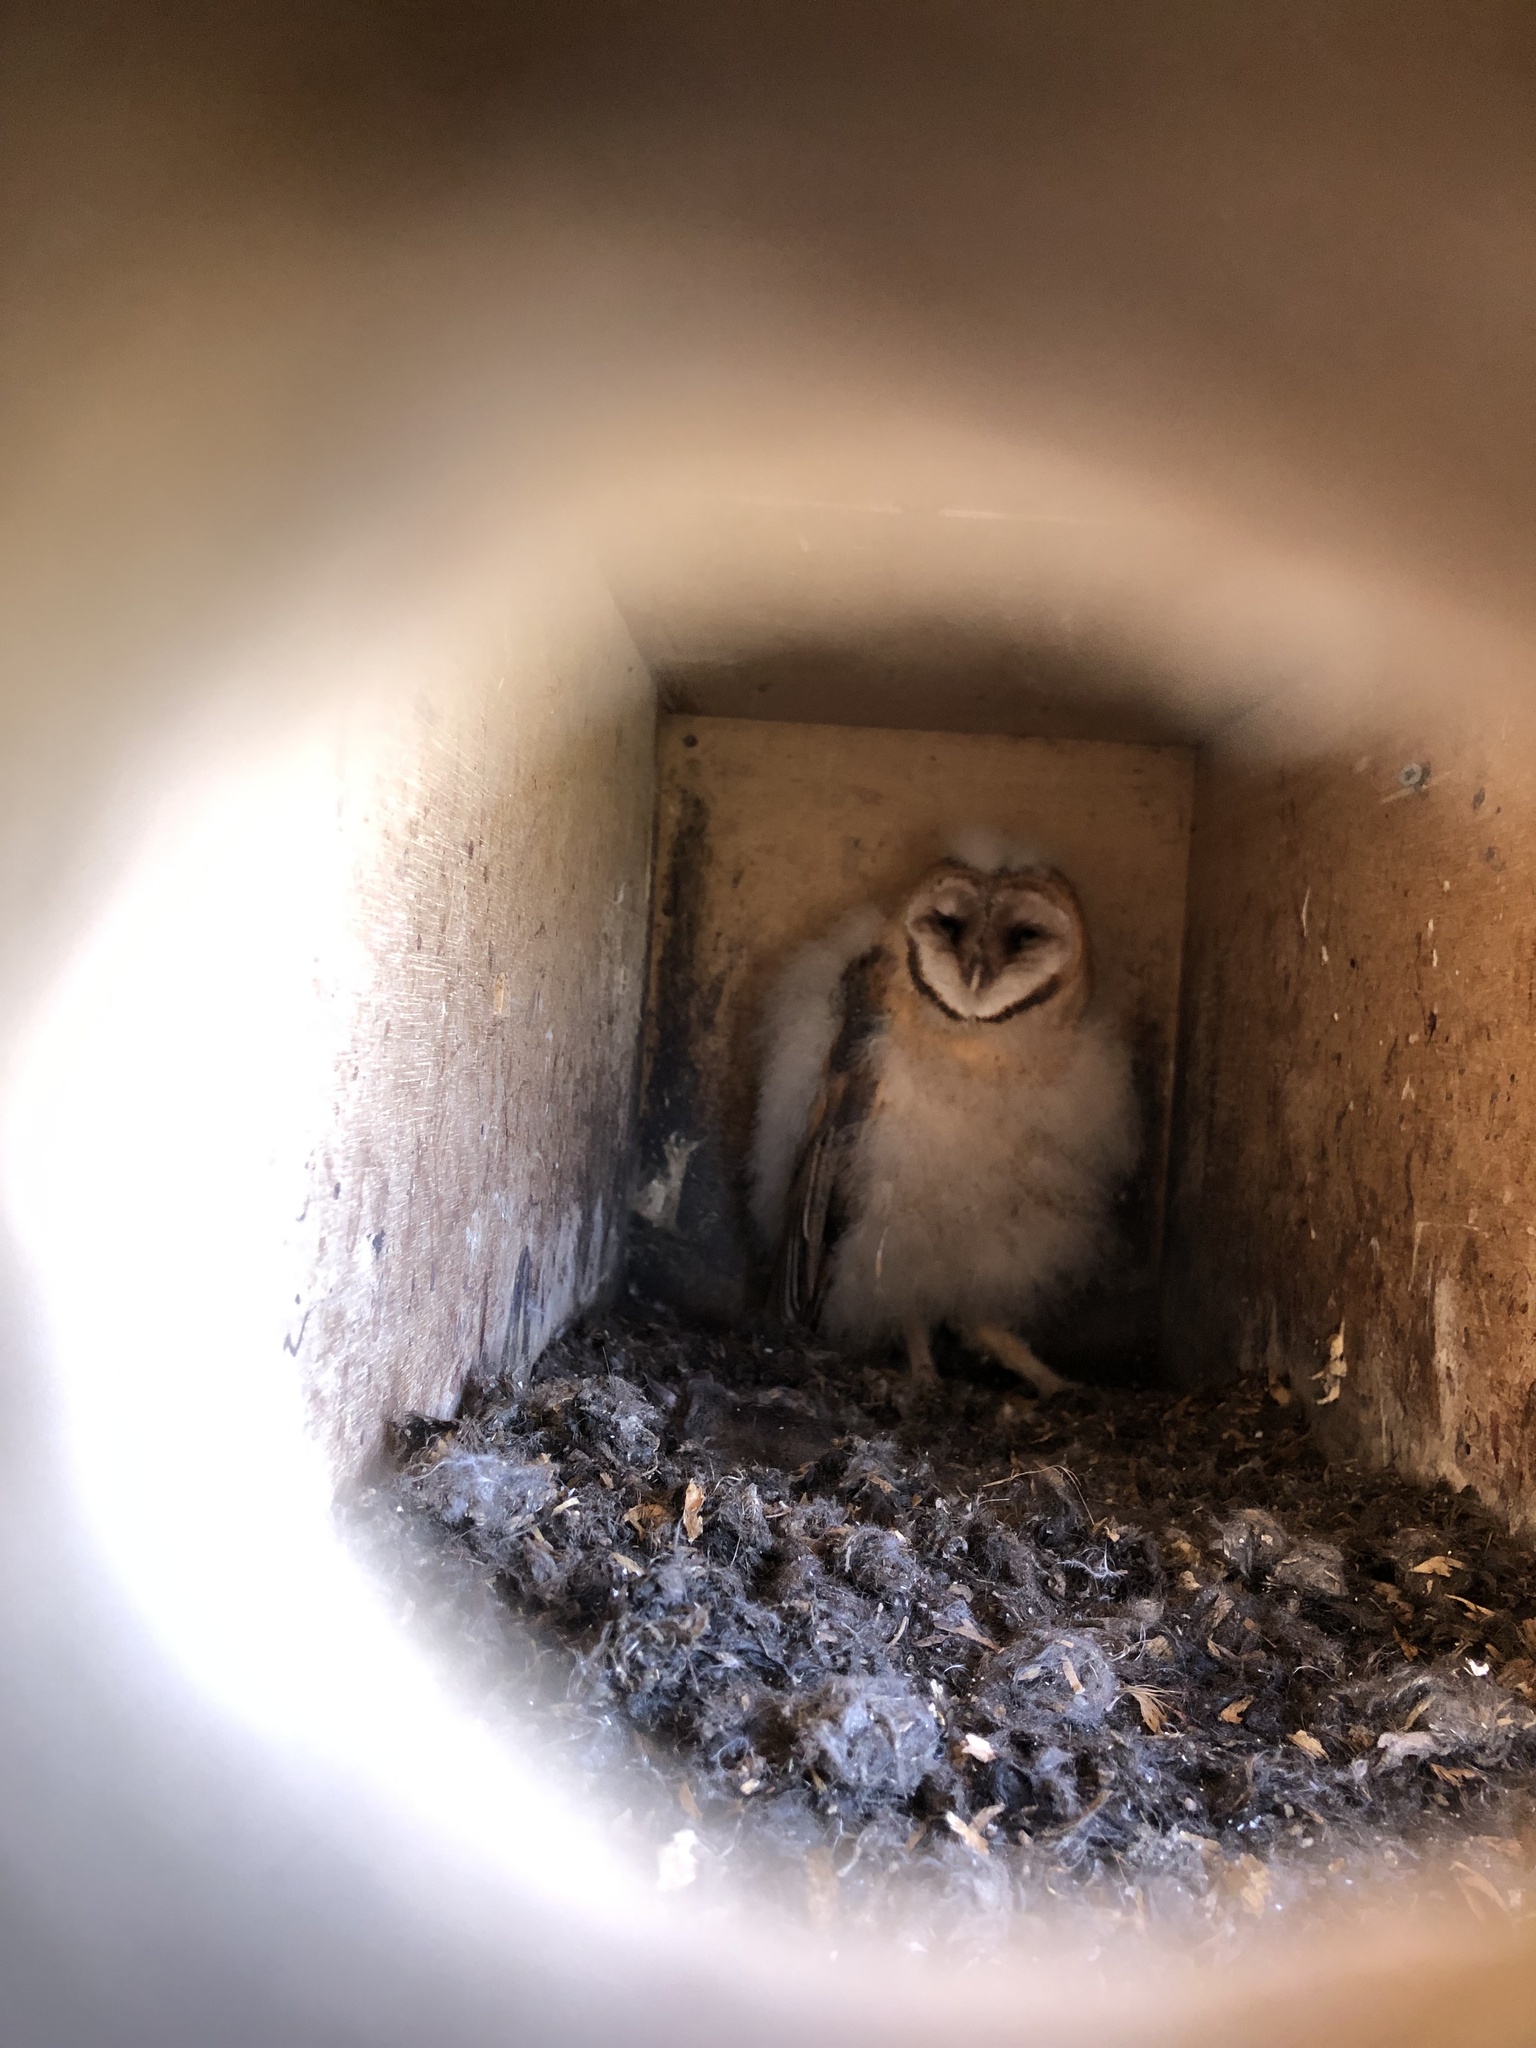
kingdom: Animalia
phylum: Chordata
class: Aves
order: Strigiformes
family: Tytonidae
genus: Tyto
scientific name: Tyto alba
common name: Barn owl
